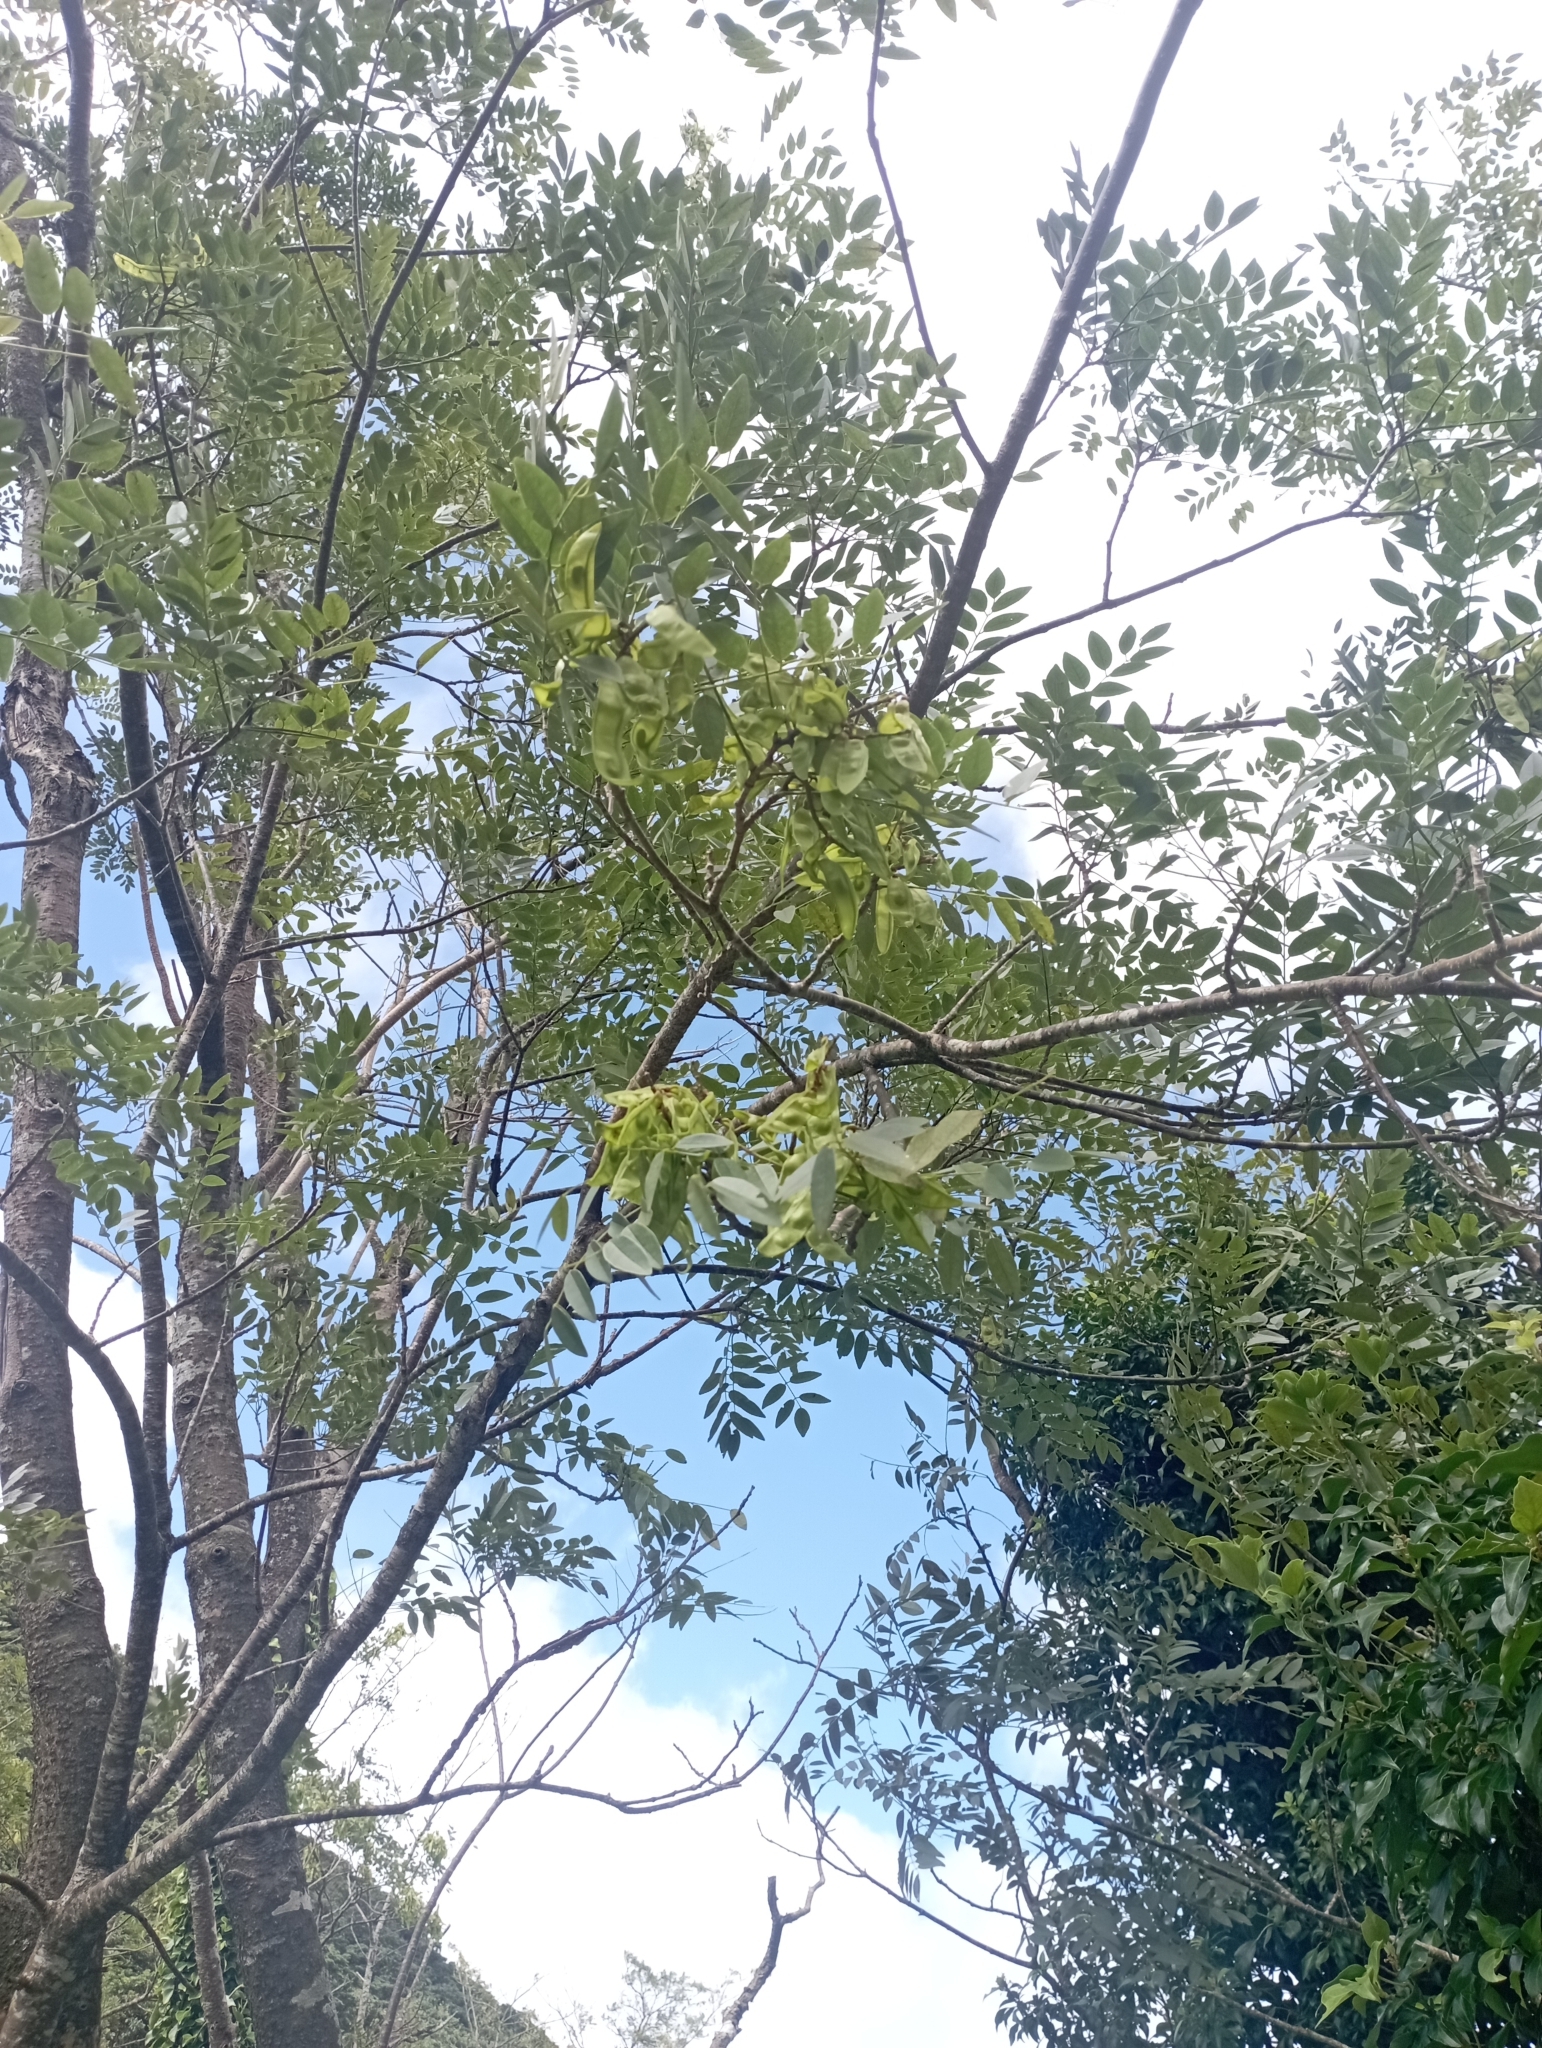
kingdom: Plantae
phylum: Tracheophyta
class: Magnoliopsida
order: Fabales
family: Fabaceae
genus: Maackia
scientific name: Maackia taiwanensis
